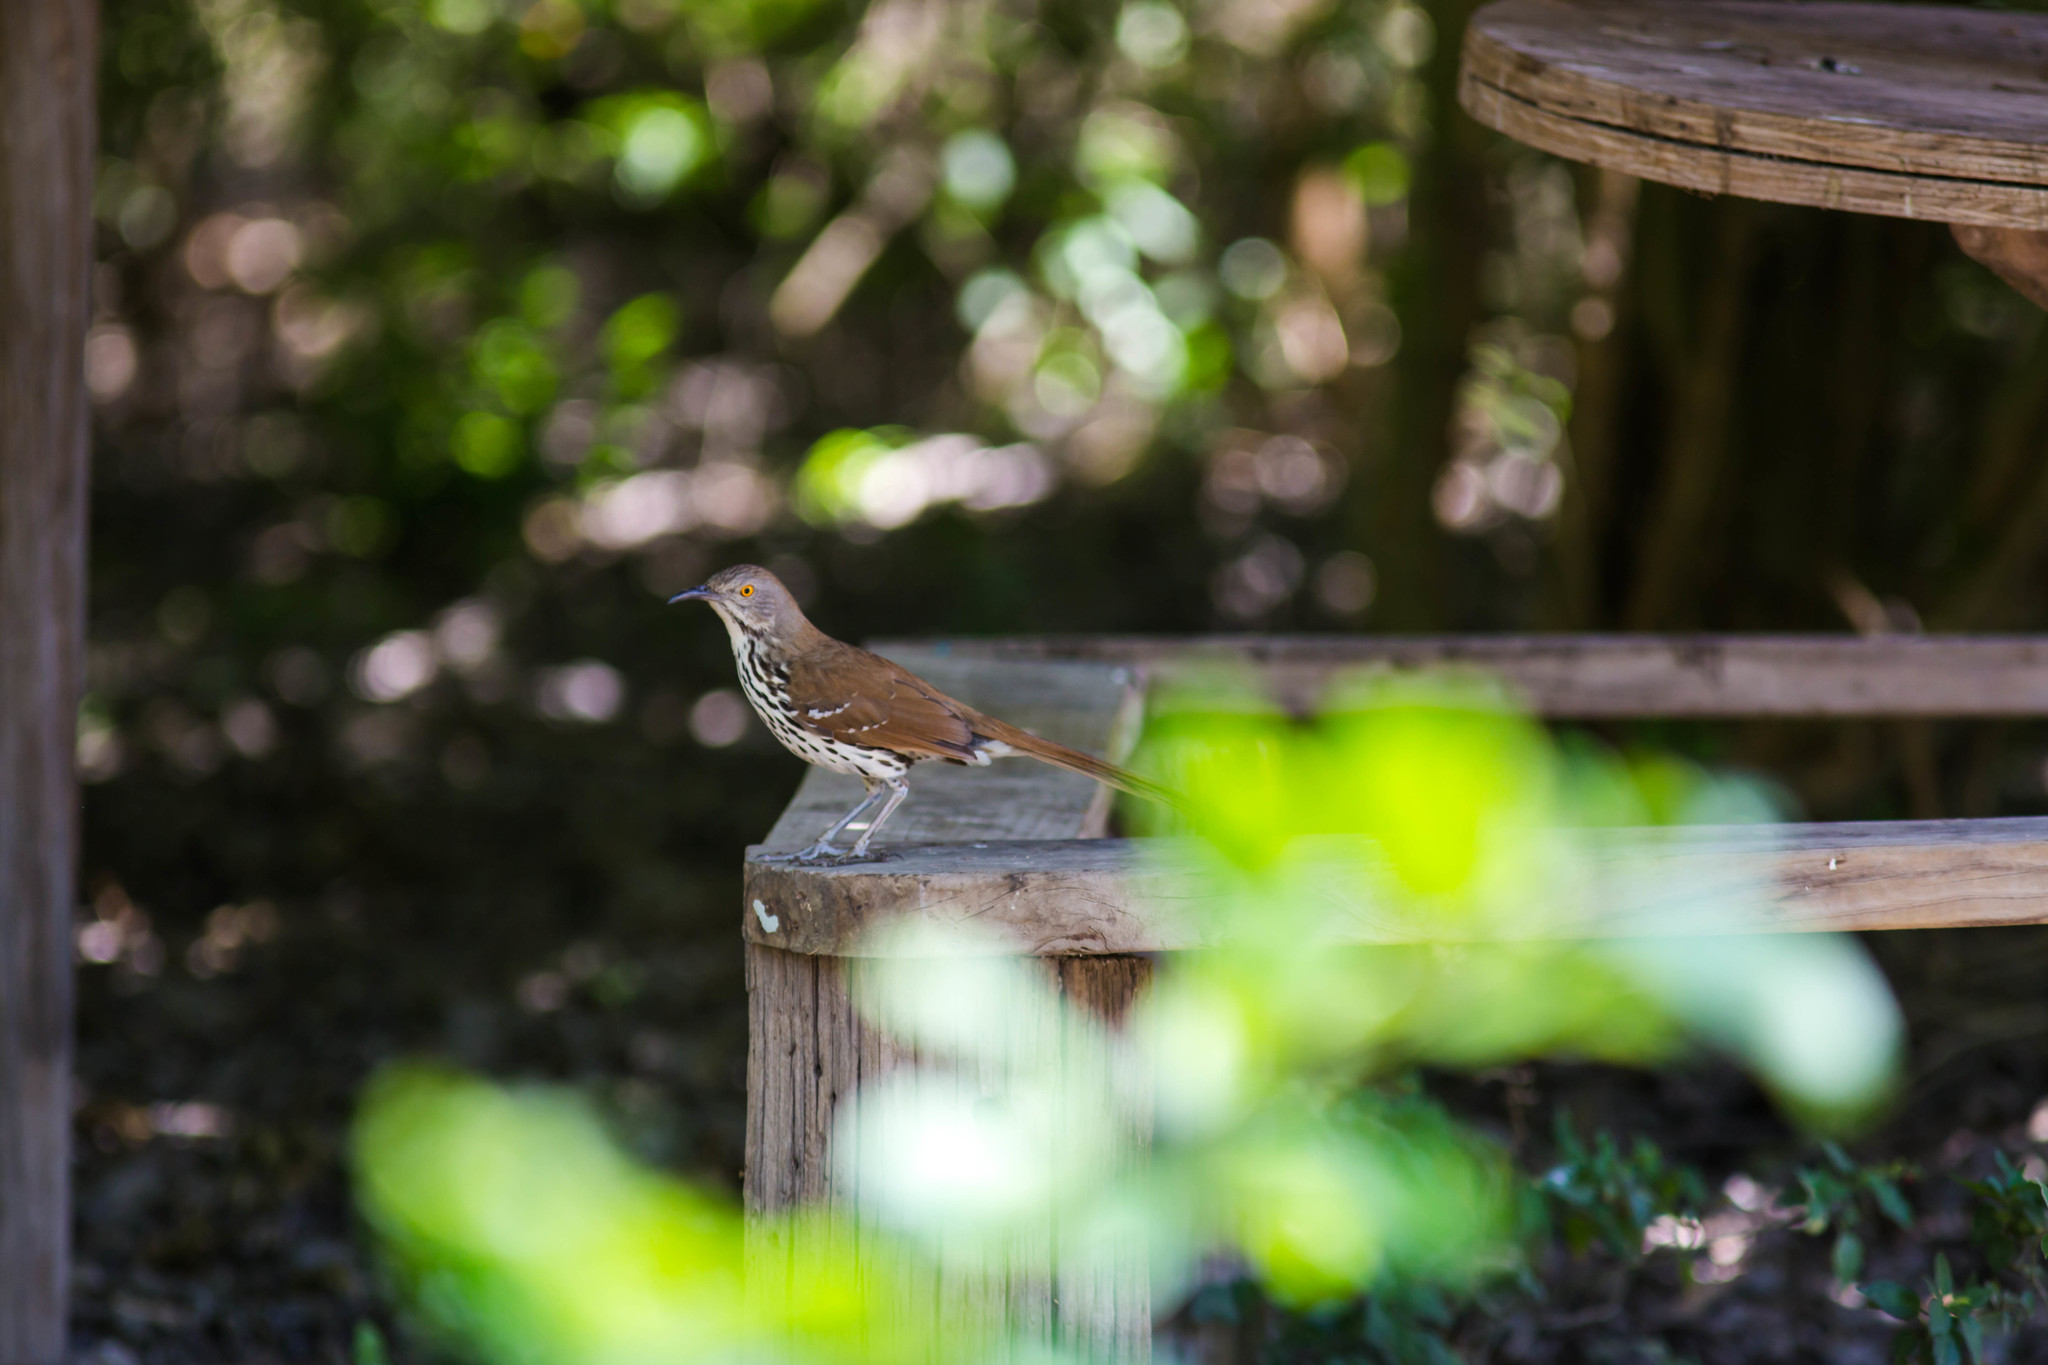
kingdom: Animalia
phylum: Chordata
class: Aves
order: Passeriformes
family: Mimidae
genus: Toxostoma
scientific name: Toxostoma longirostre
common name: Long-billed thrasher
